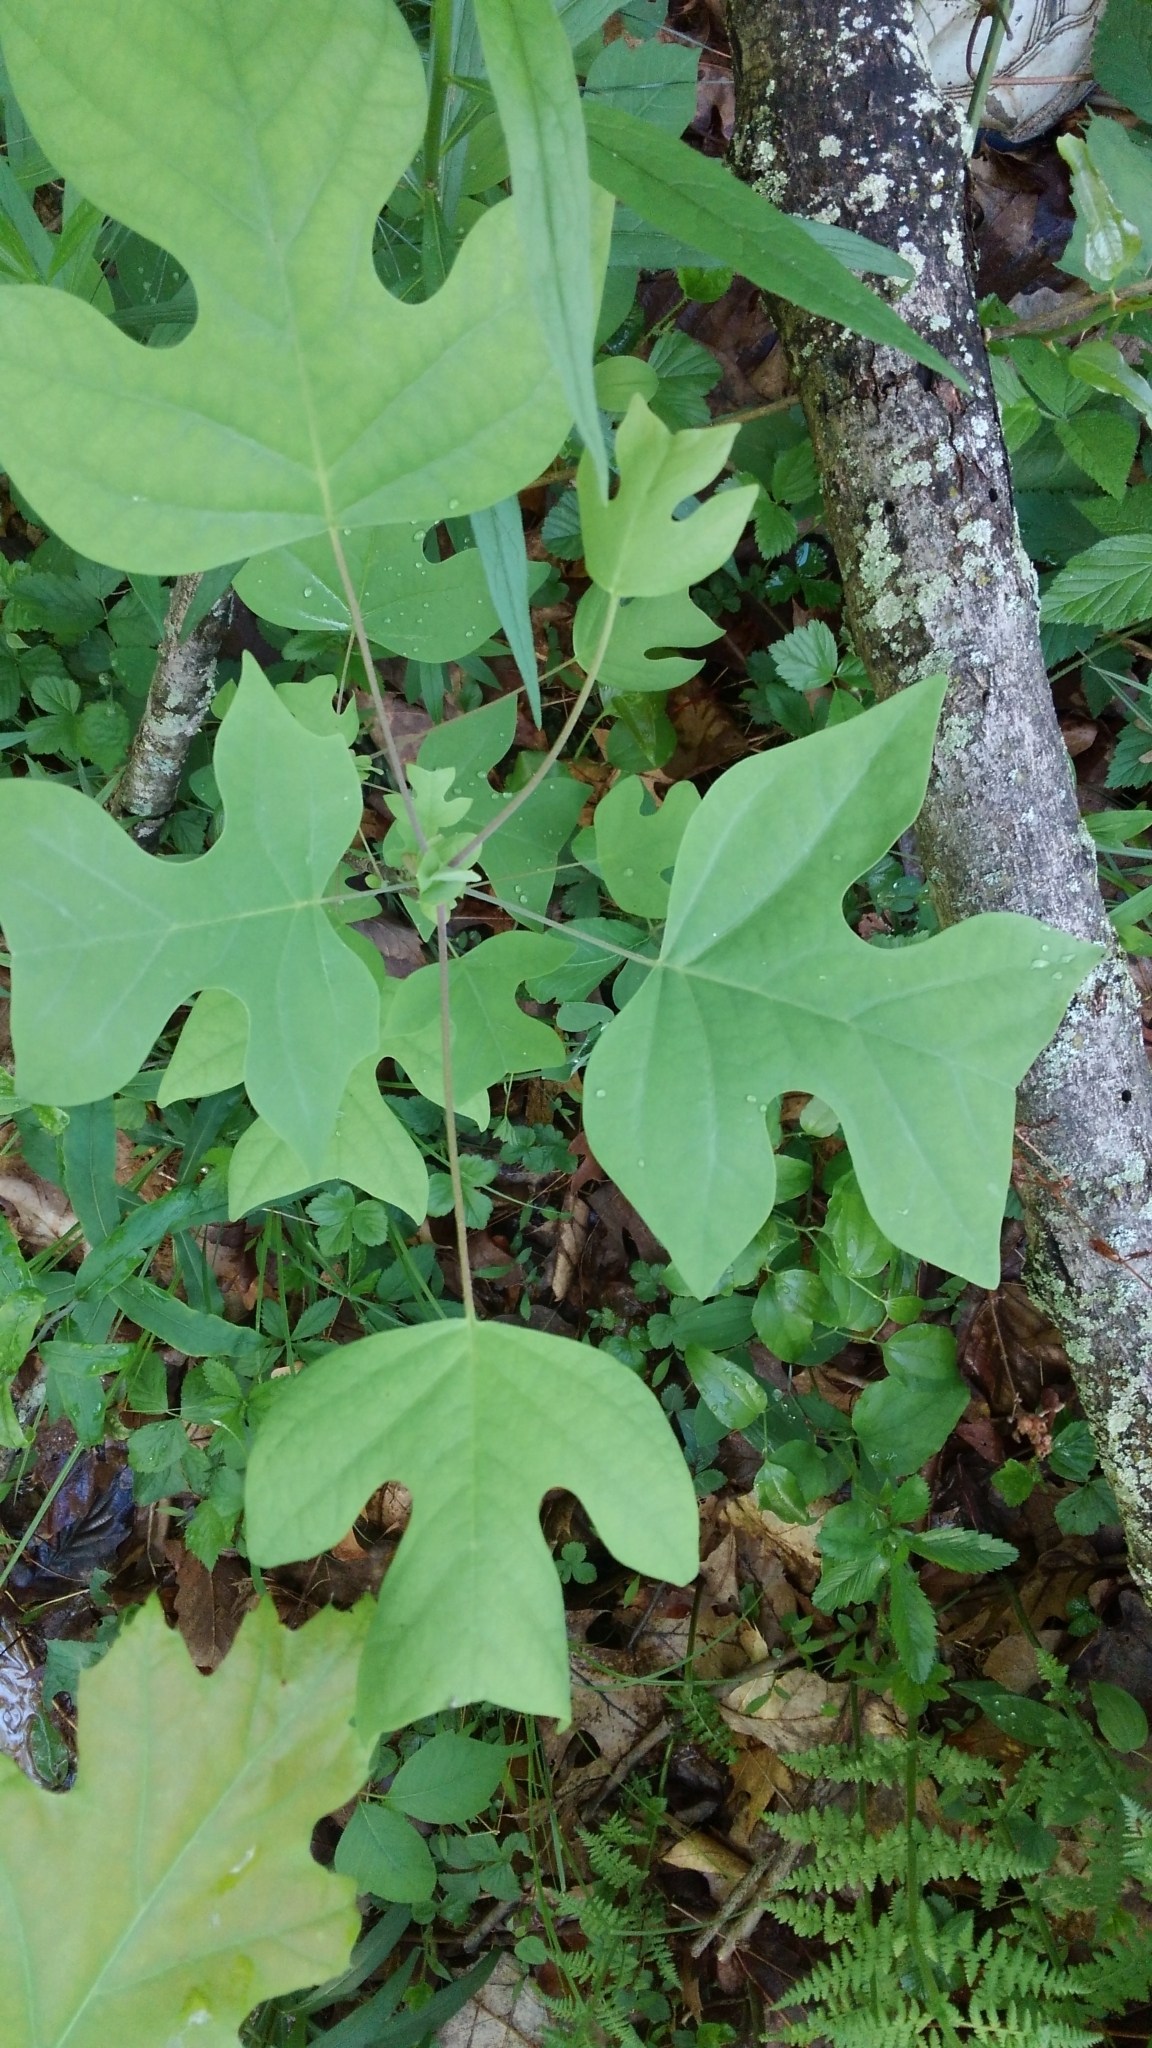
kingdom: Plantae
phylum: Tracheophyta
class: Magnoliopsida
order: Magnoliales
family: Magnoliaceae
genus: Liriodendron
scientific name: Liriodendron tulipifera
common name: Tulip tree
